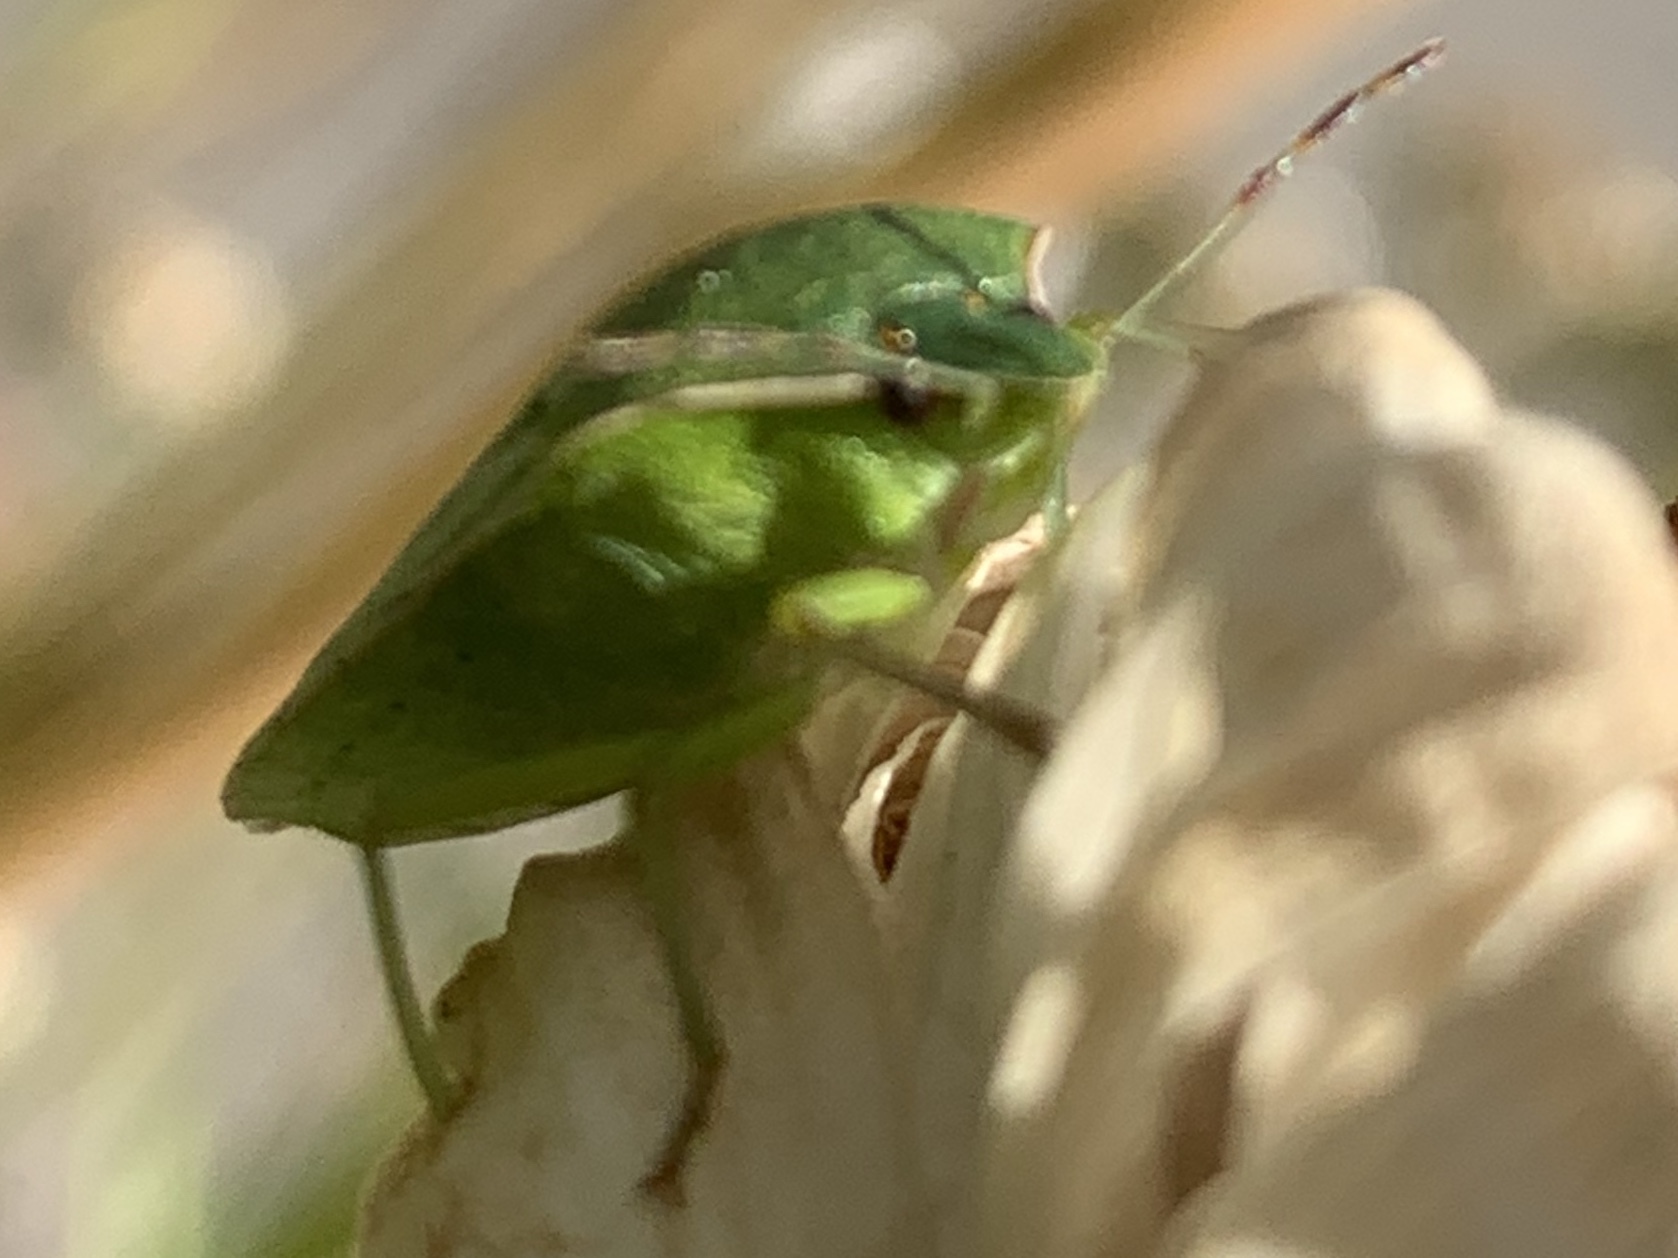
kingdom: Animalia
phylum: Arthropoda
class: Insecta
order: Hemiptera
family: Pentatomidae
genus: Nezara
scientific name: Nezara viridula
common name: Southern green stink bug
